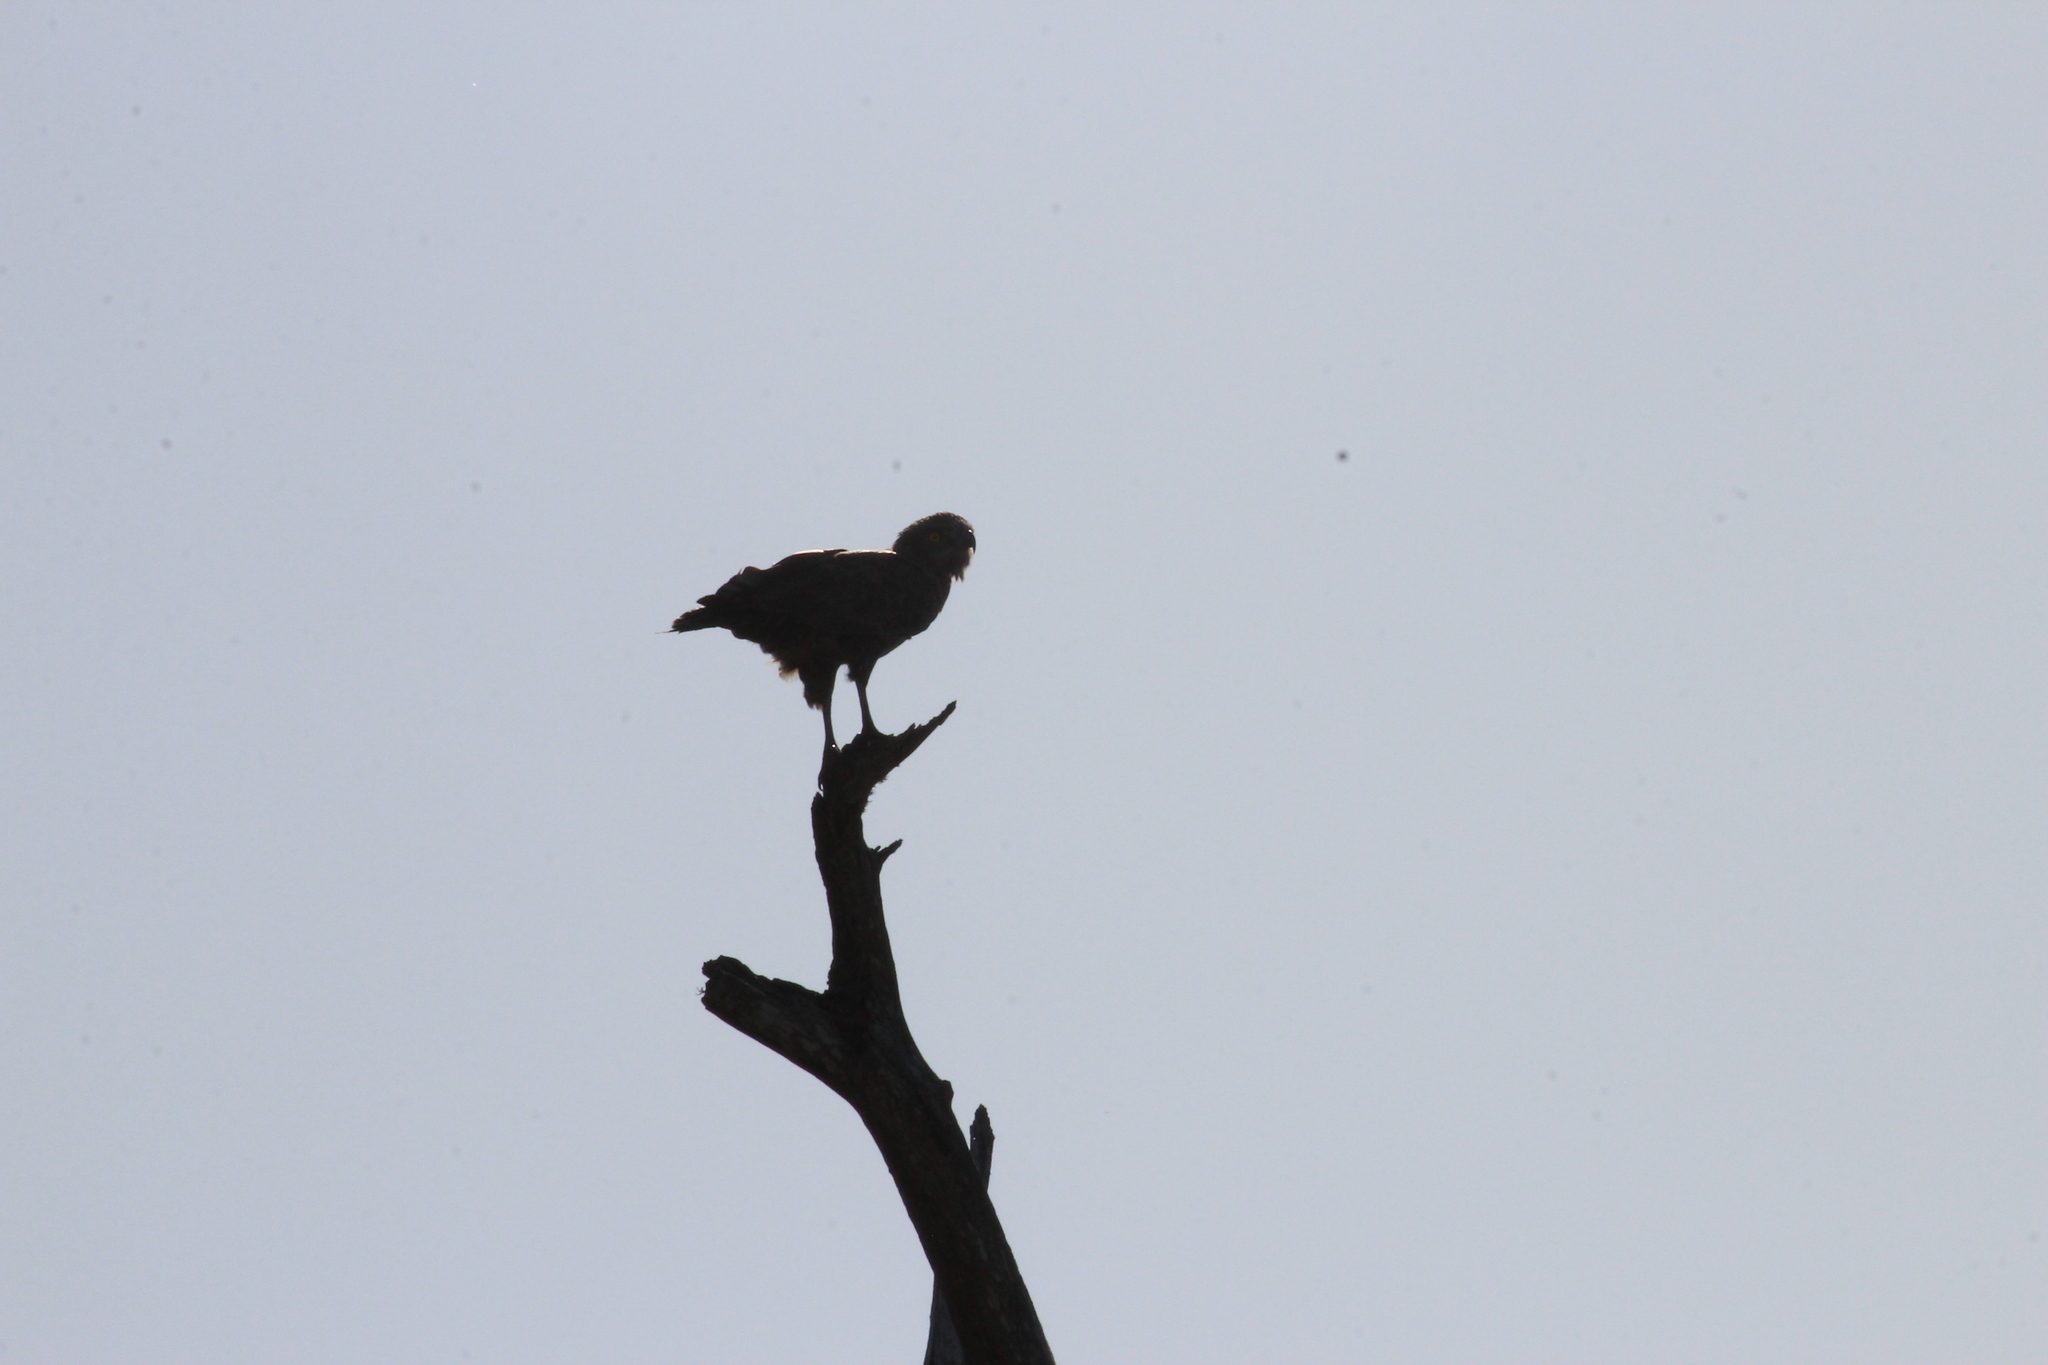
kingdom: Animalia
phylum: Chordata
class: Aves
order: Accipitriformes
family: Accipitridae
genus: Circaetus
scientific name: Circaetus cinereus
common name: Brown snake eagle
